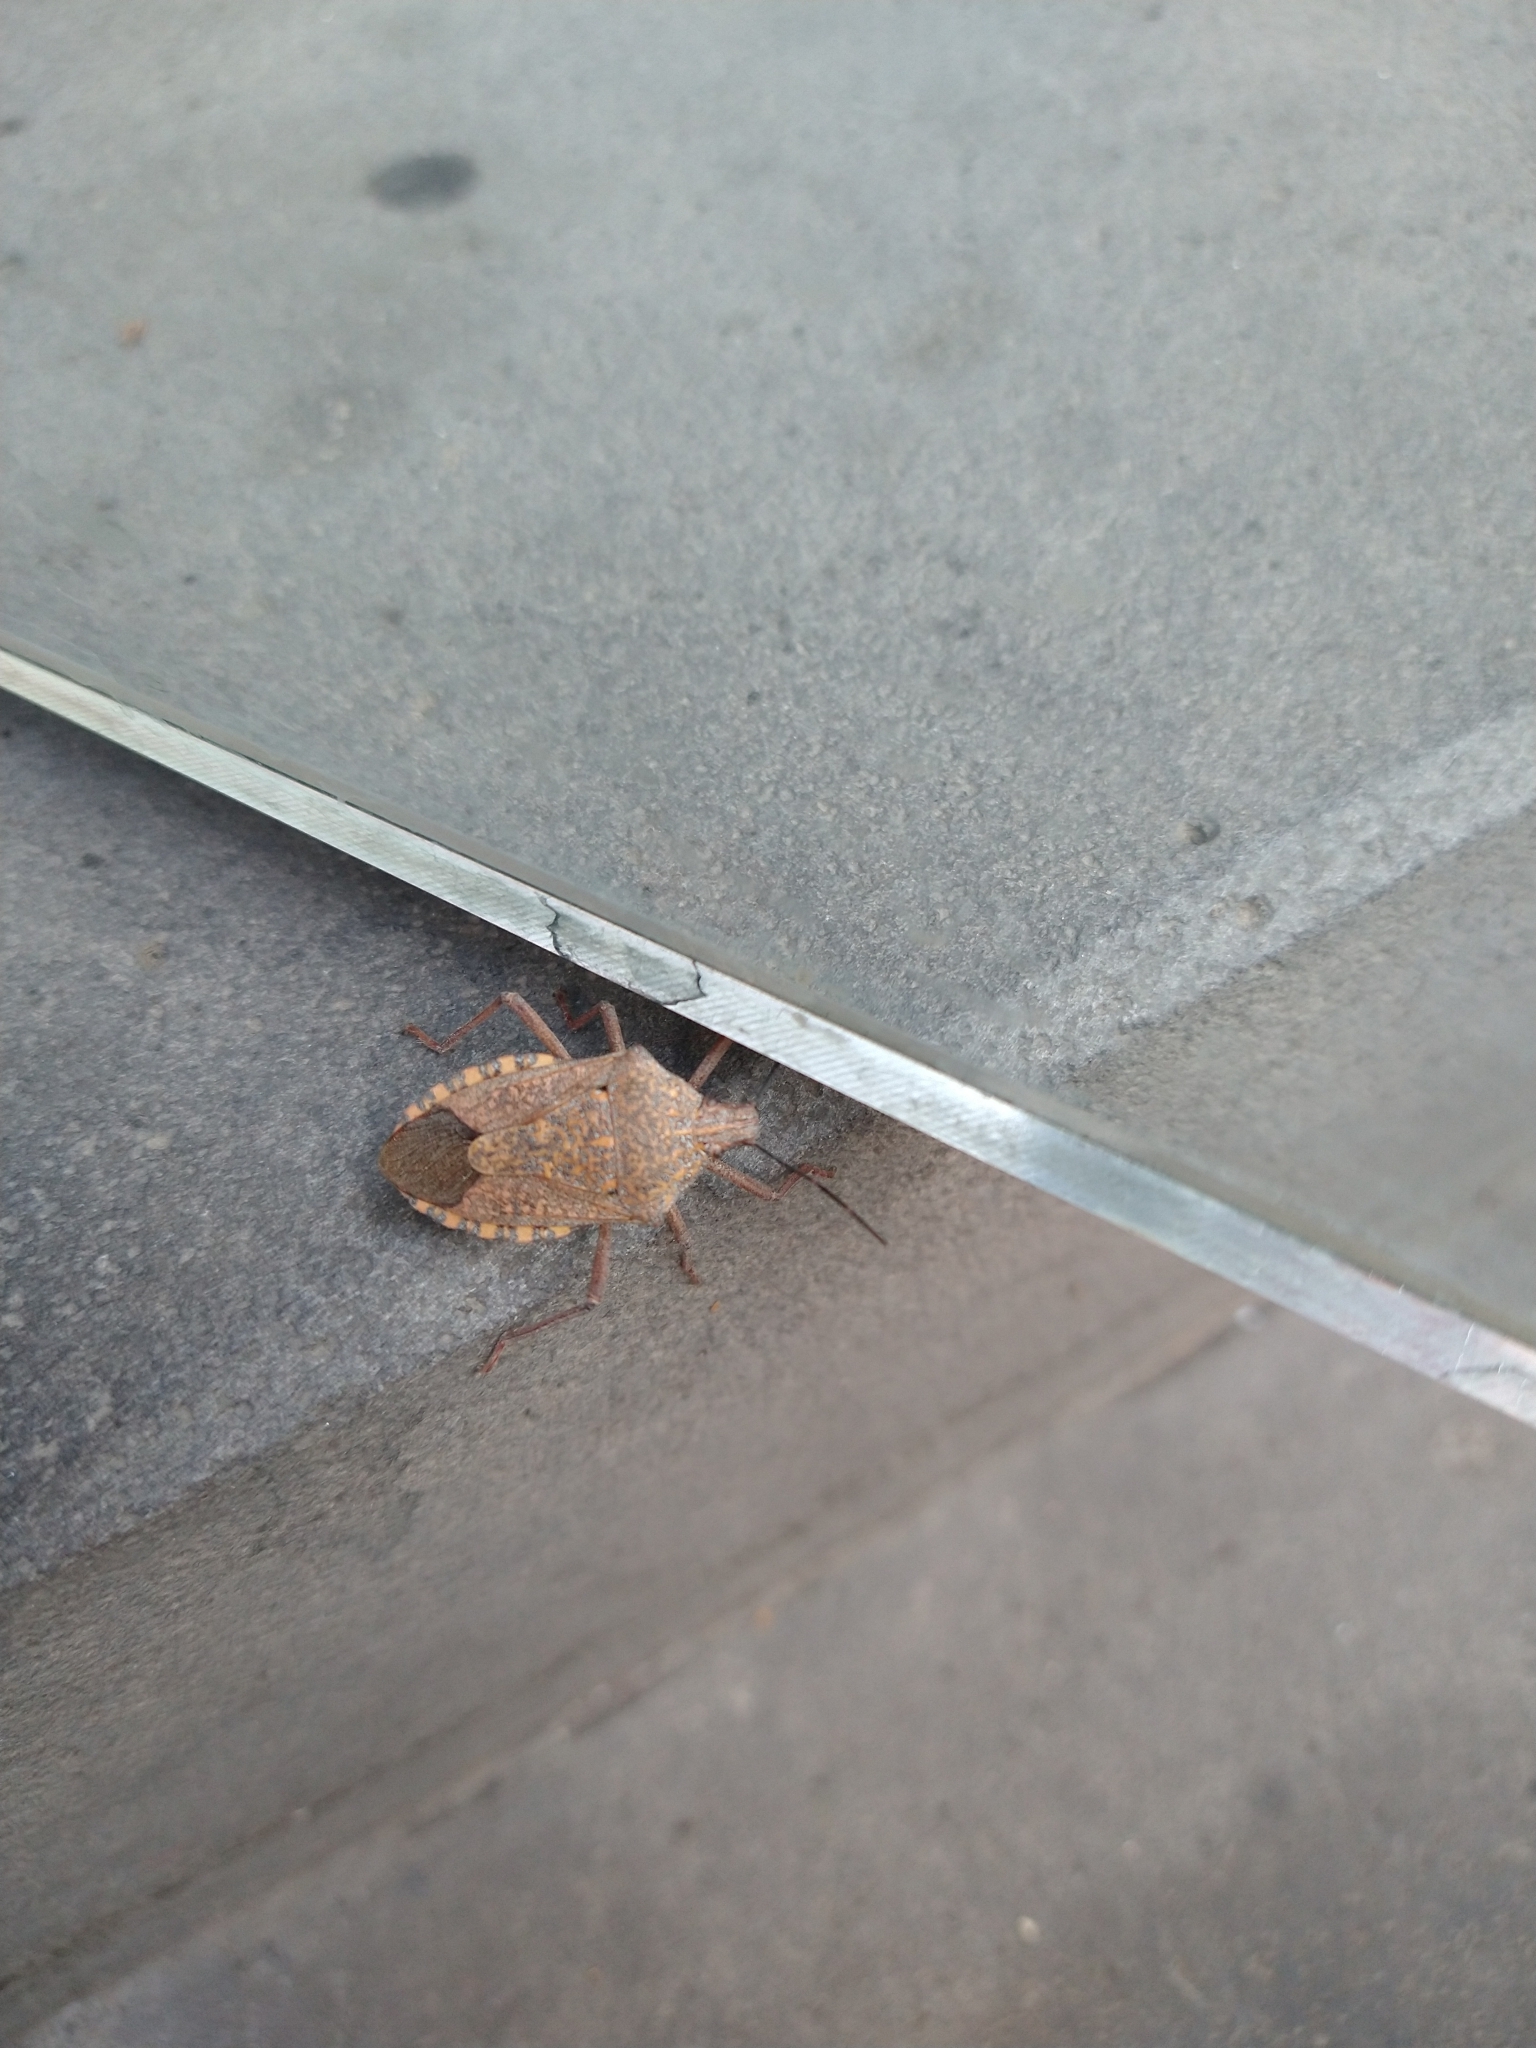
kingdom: Animalia
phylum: Arthropoda
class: Insecta
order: Hemiptera
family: Pentatomidae
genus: Apodiphus
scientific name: Apodiphus
